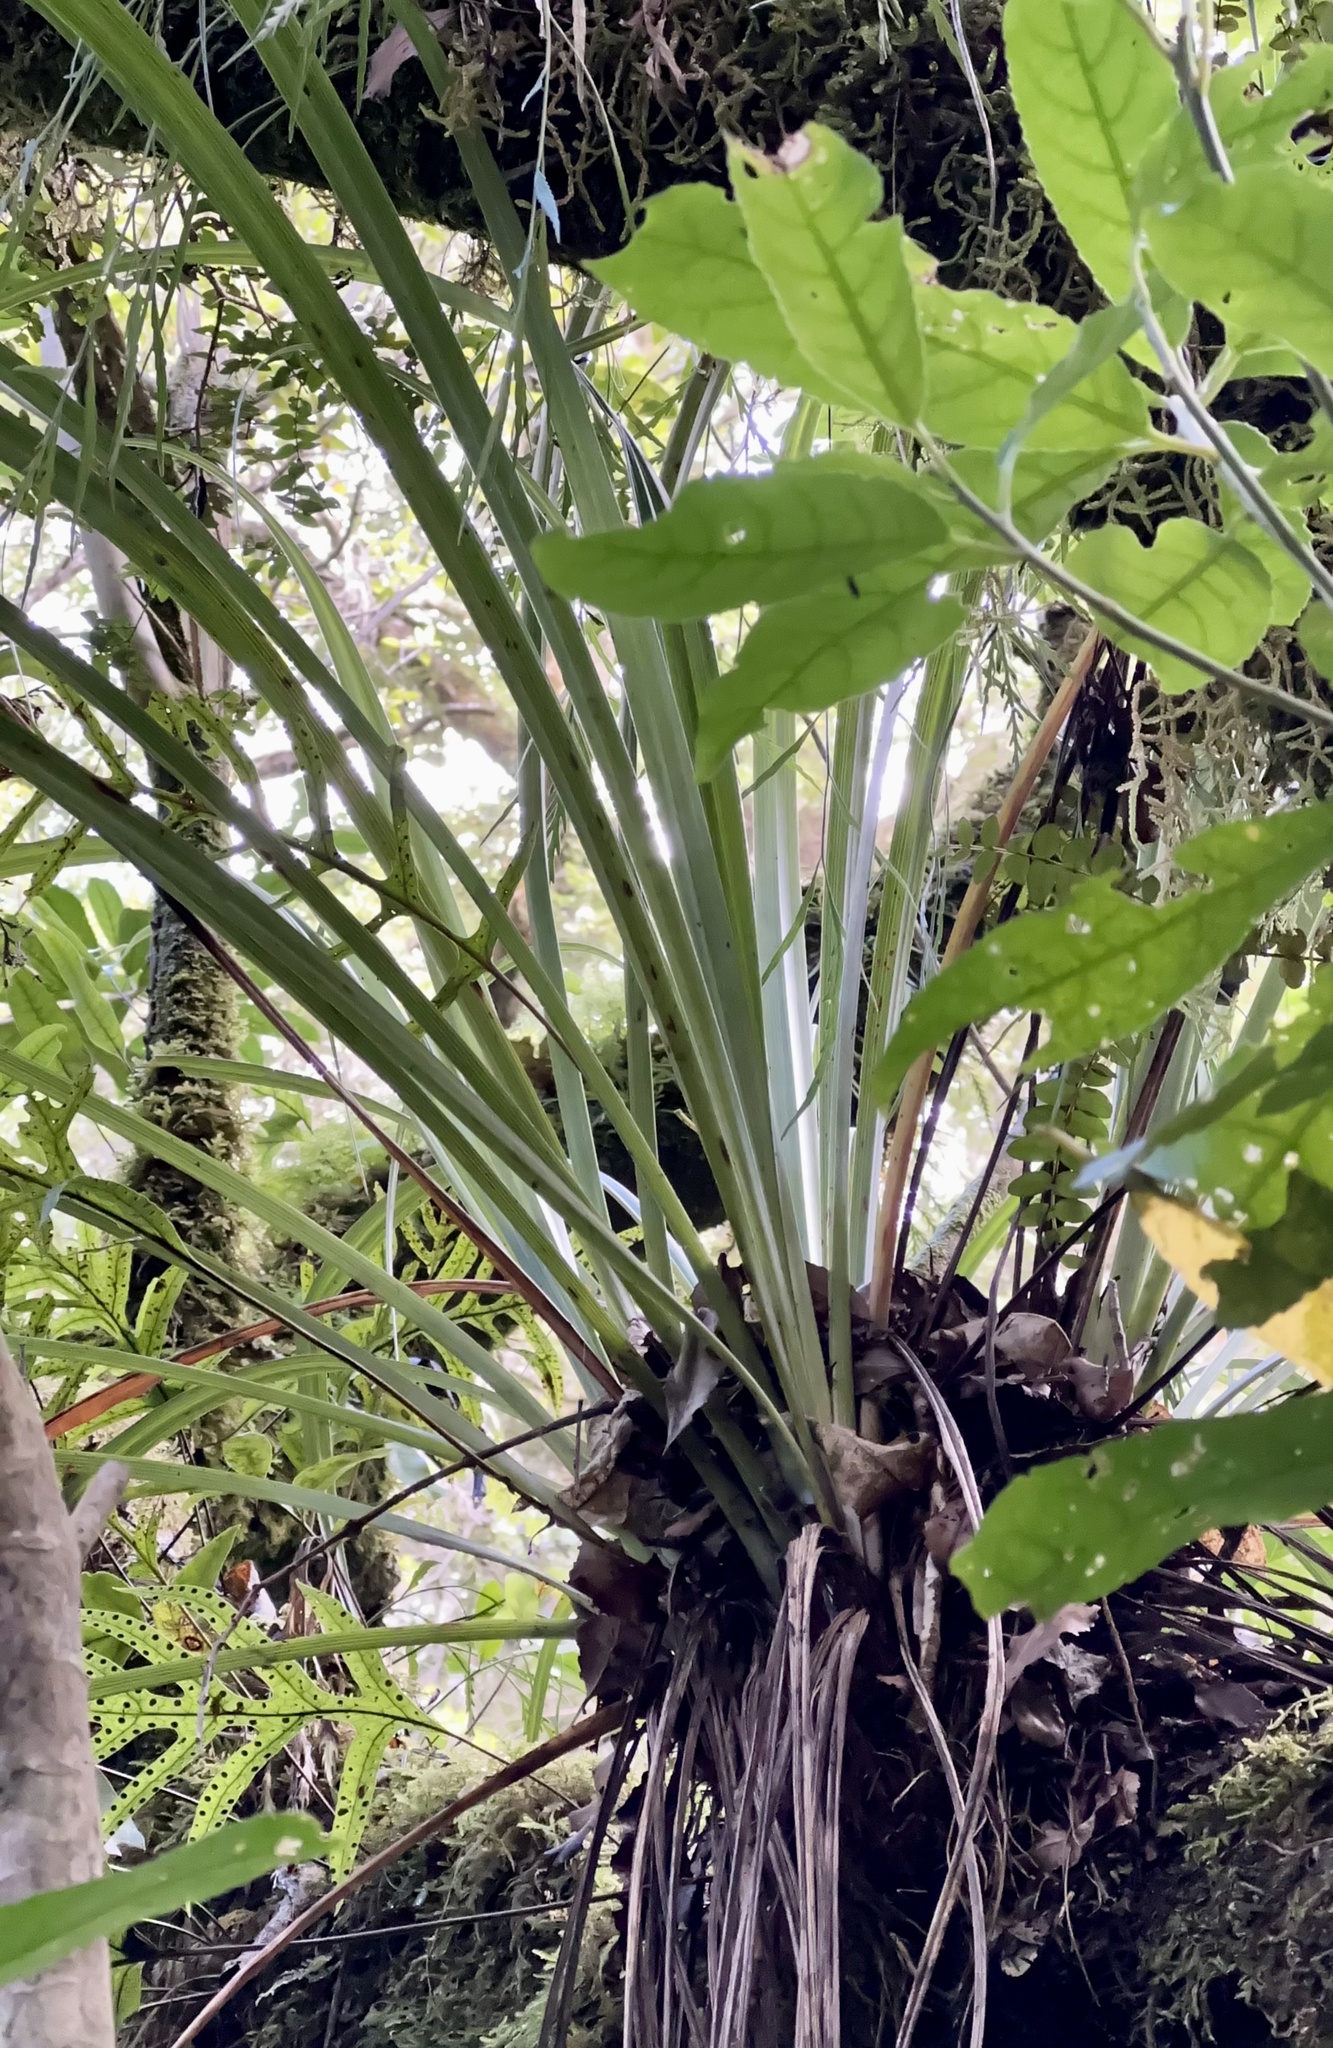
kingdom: Plantae
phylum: Tracheophyta
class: Liliopsida
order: Asparagales
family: Asteliaceae
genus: Astelia
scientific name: Astelia solandri
